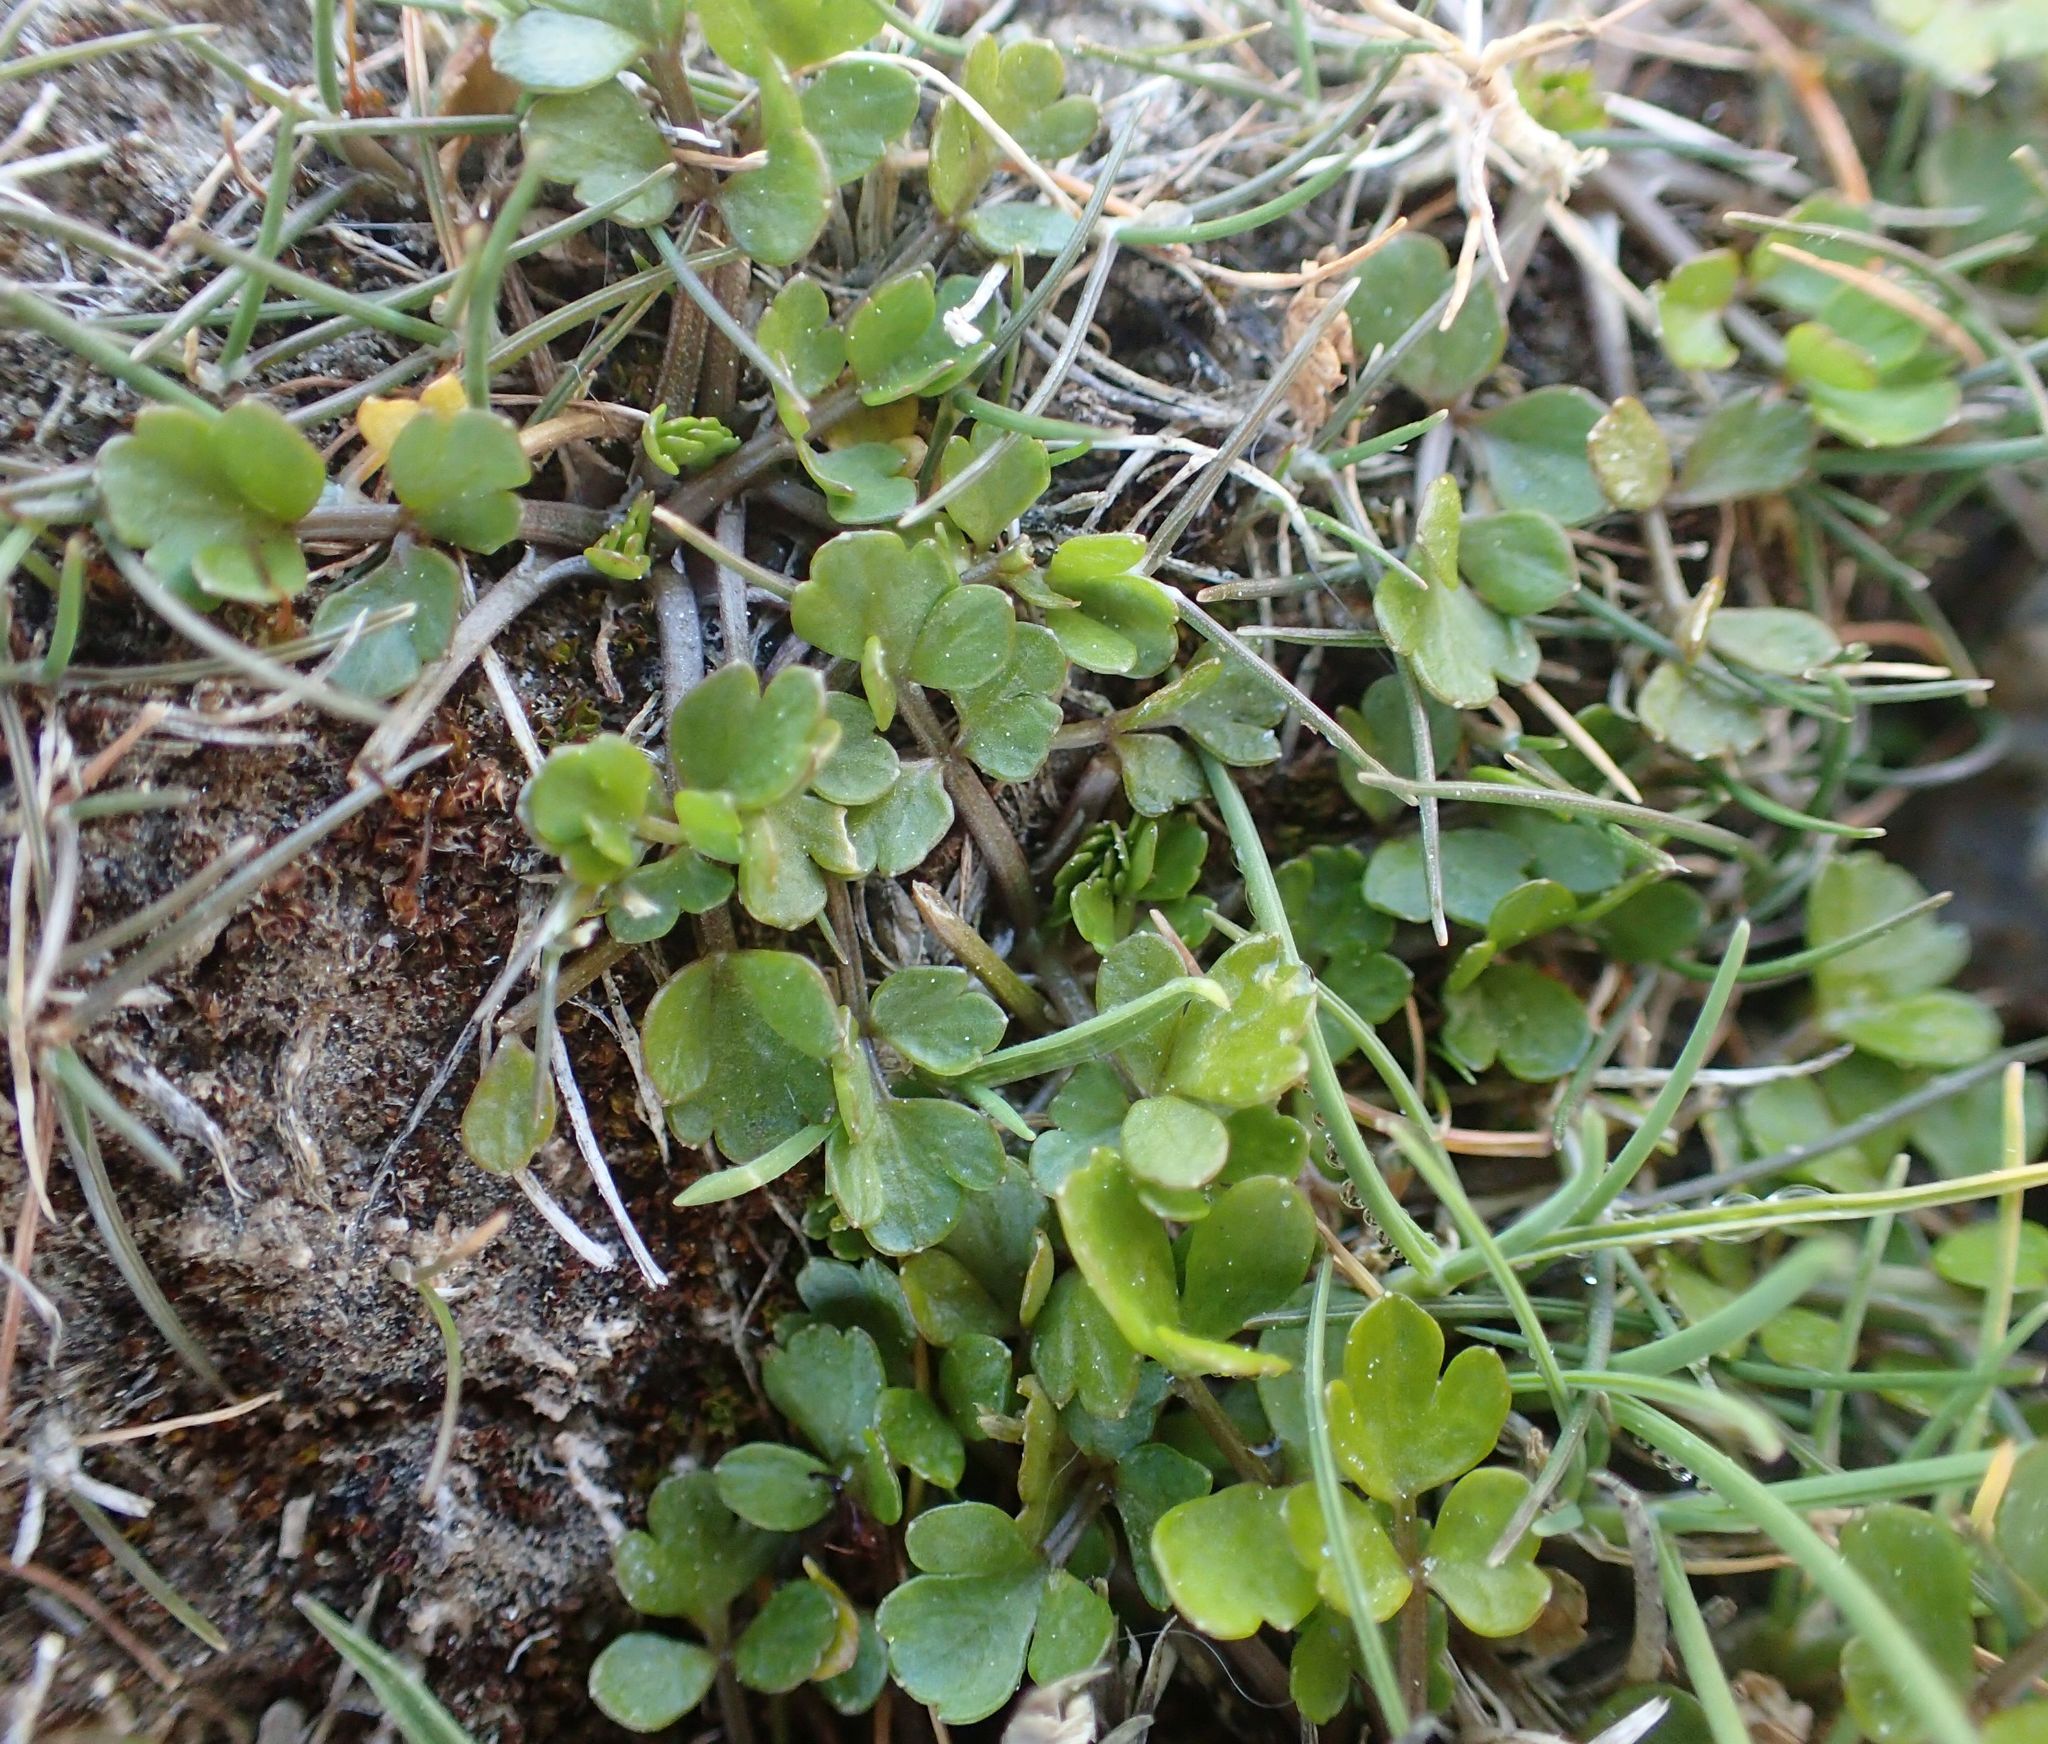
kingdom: Plantae
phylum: Tracheophyta
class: Magnoliopsida
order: Apiales
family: Apiaceae
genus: Apium
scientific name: Apium prostratum
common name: Prostrate marshwort
